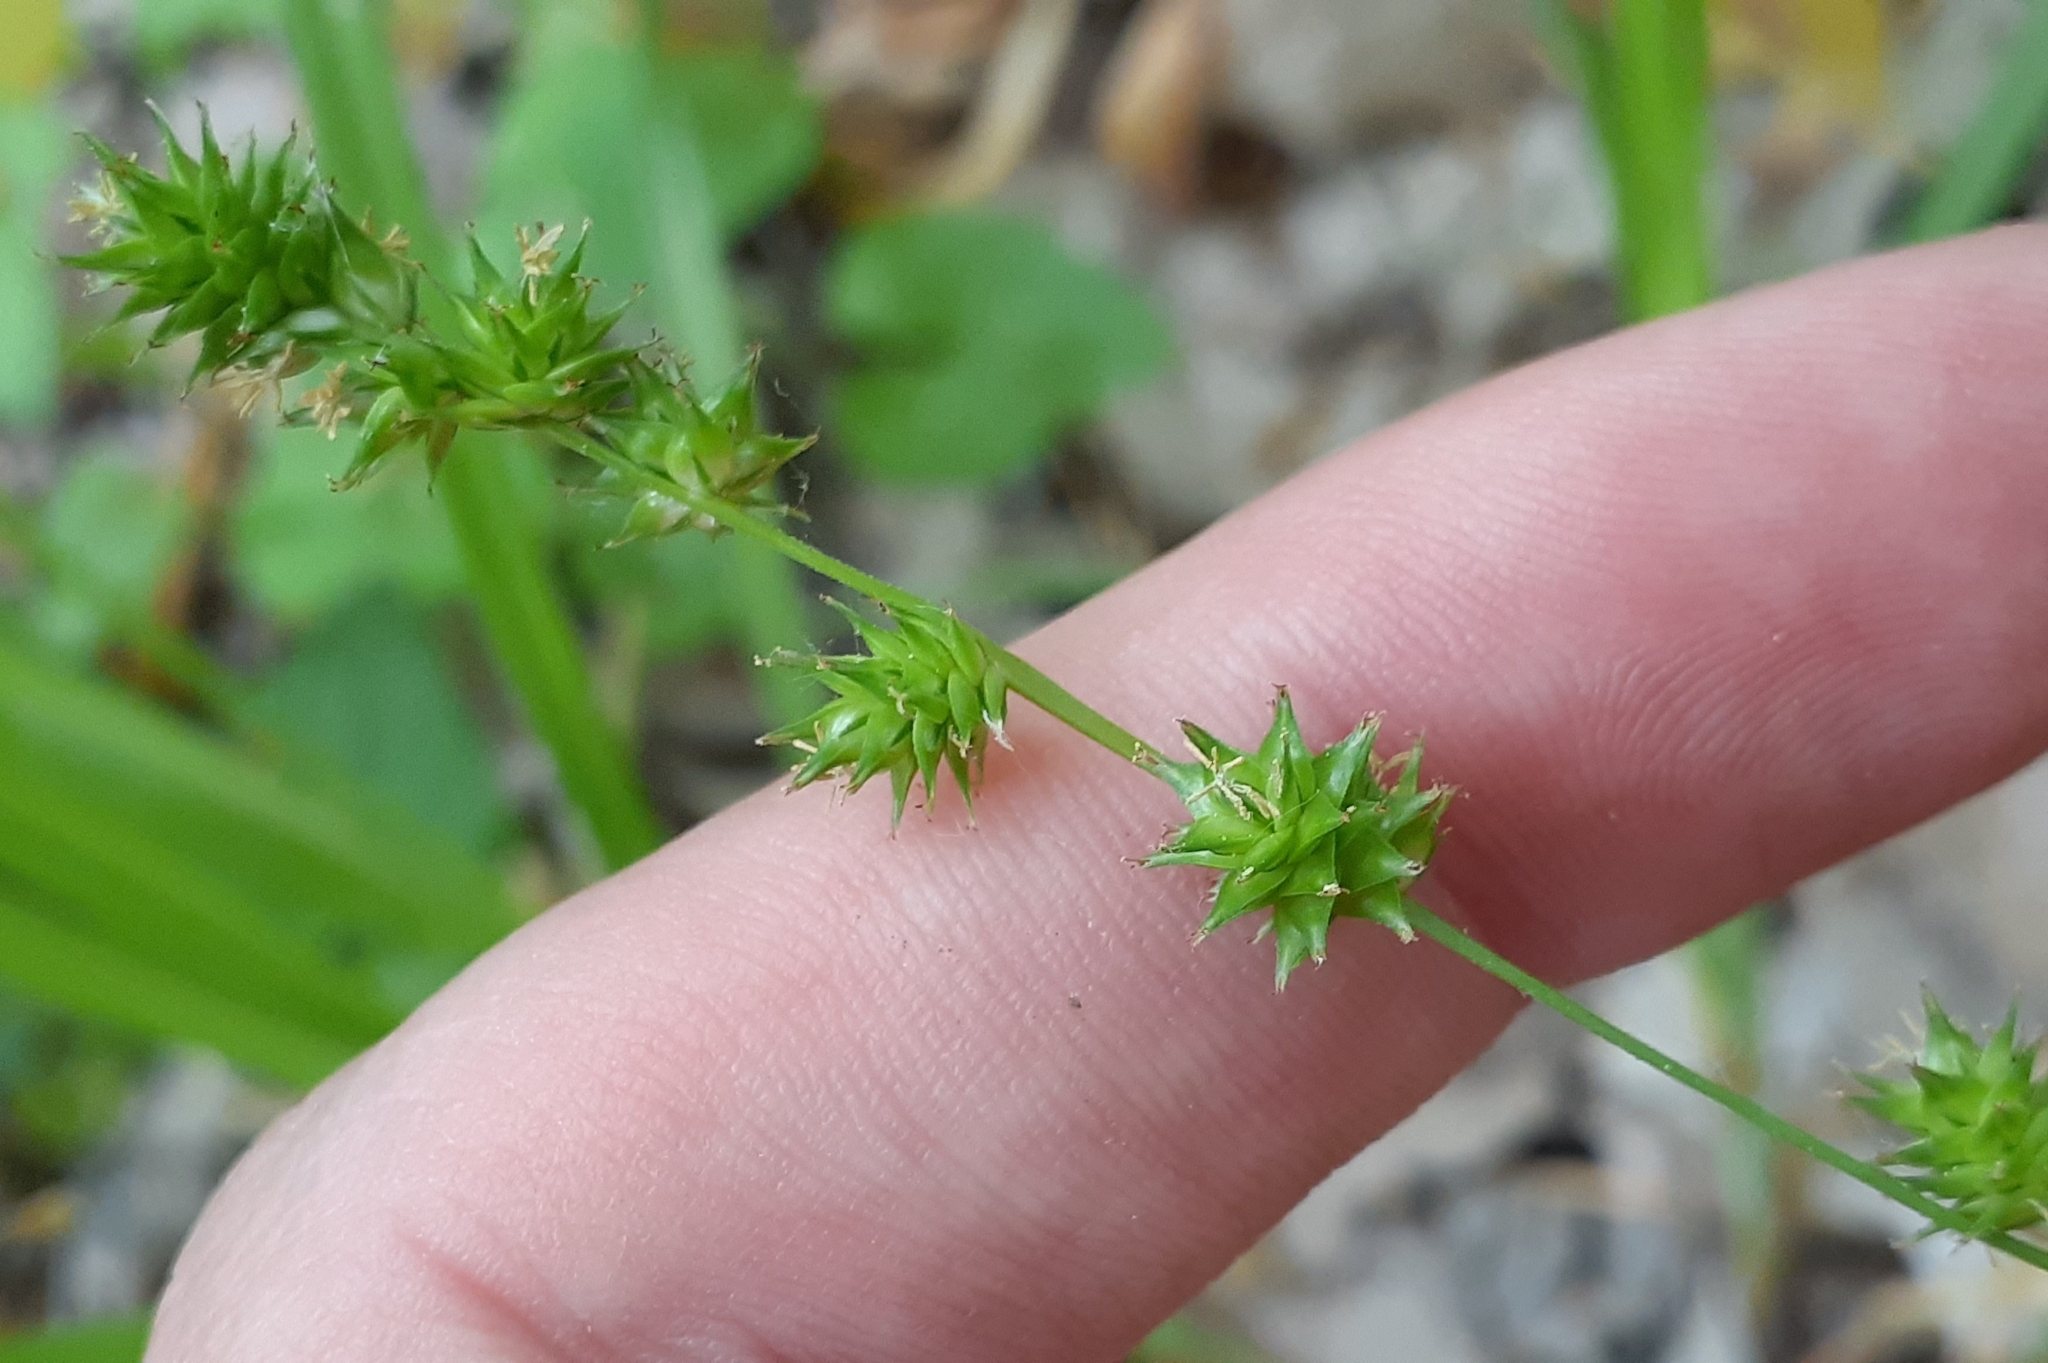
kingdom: Plantae
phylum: Tracheophyta
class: Liliopsida
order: Poales
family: Cyperaceae
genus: Carex
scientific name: Carex sparganioides
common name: Burreed sedge
